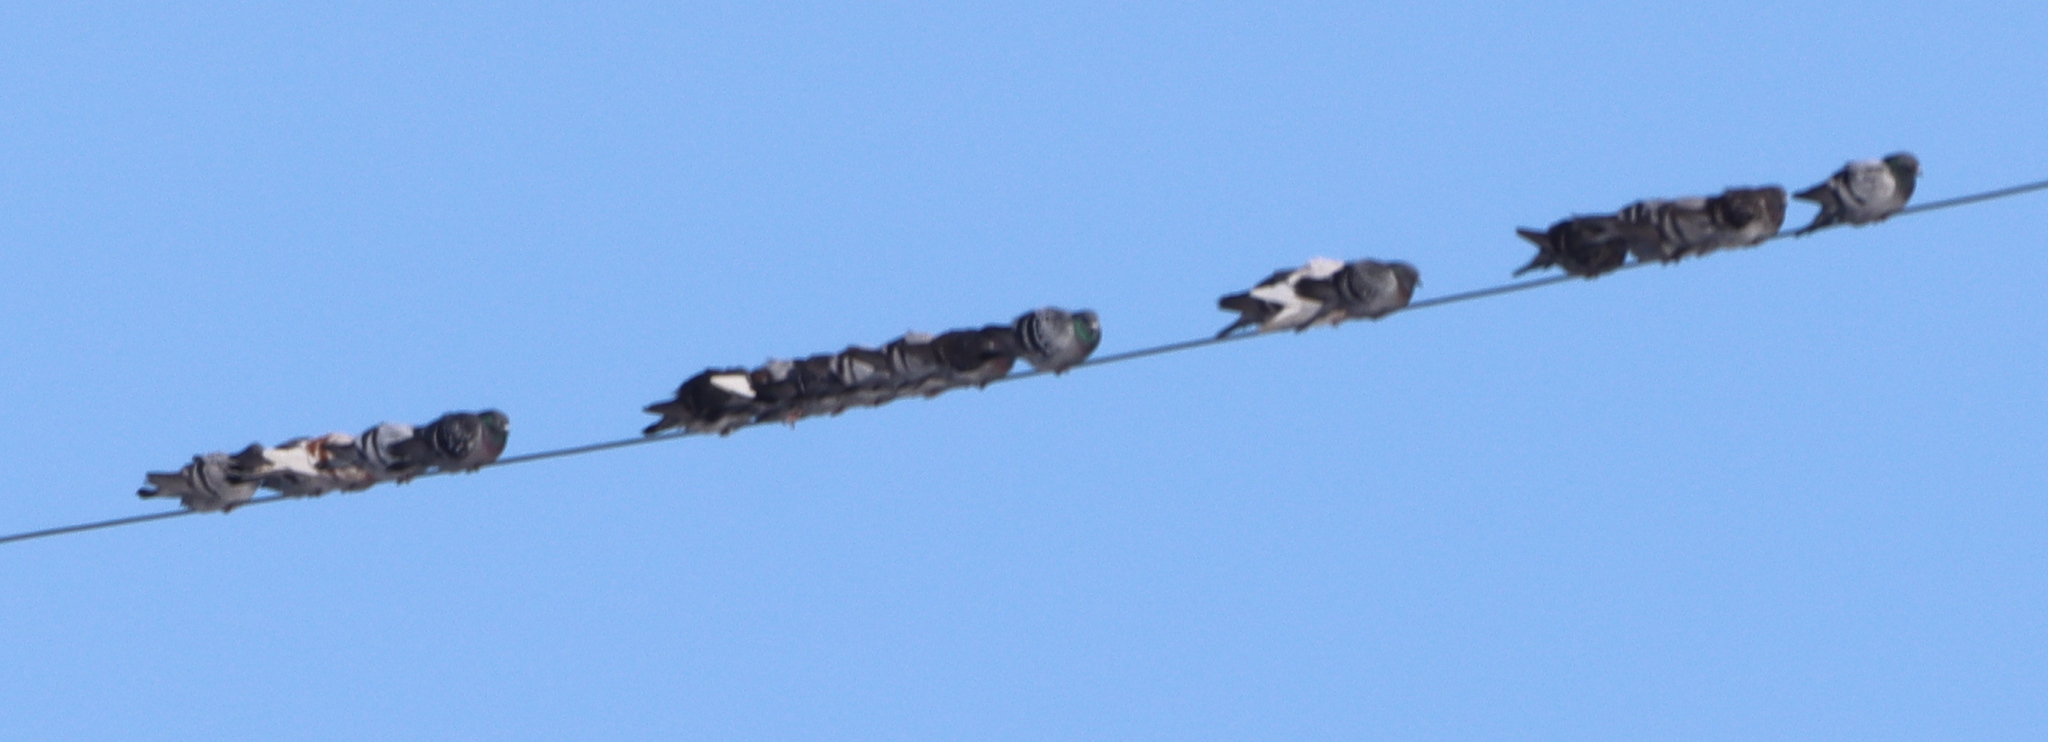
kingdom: Animalia
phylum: Chordata
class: Aves
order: Columbiformes
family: Columbidae
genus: Columba
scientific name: Columba livia
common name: Rock pigeon
